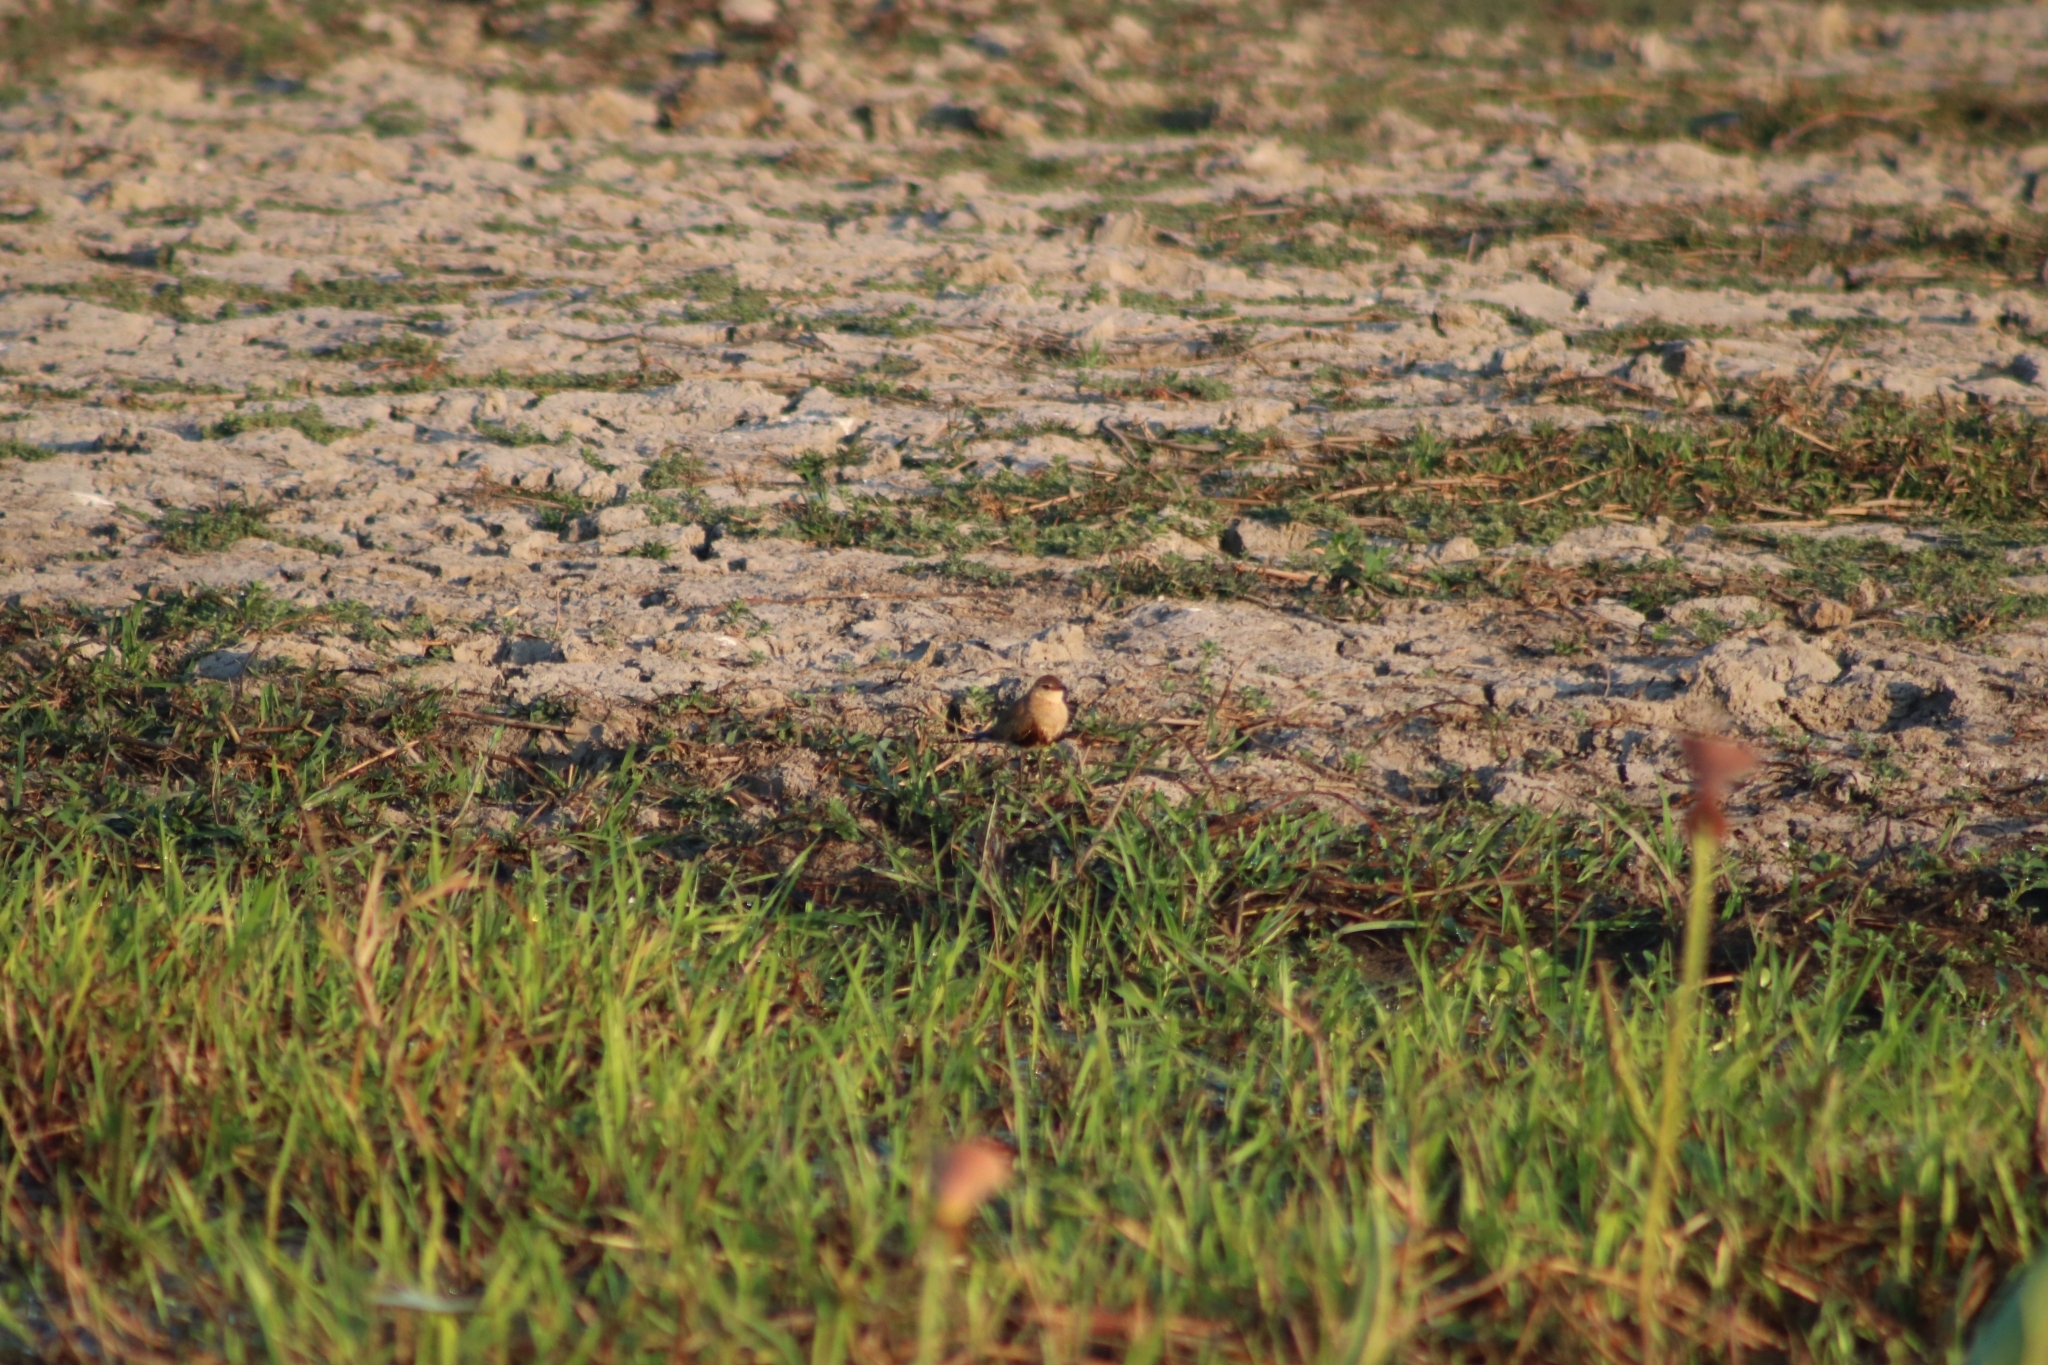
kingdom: Animalia
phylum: Chordata
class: Aves
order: Charadriiformes
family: Glareolidae
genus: Stiltia
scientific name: Stiltia isabella
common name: Australian pratincole
